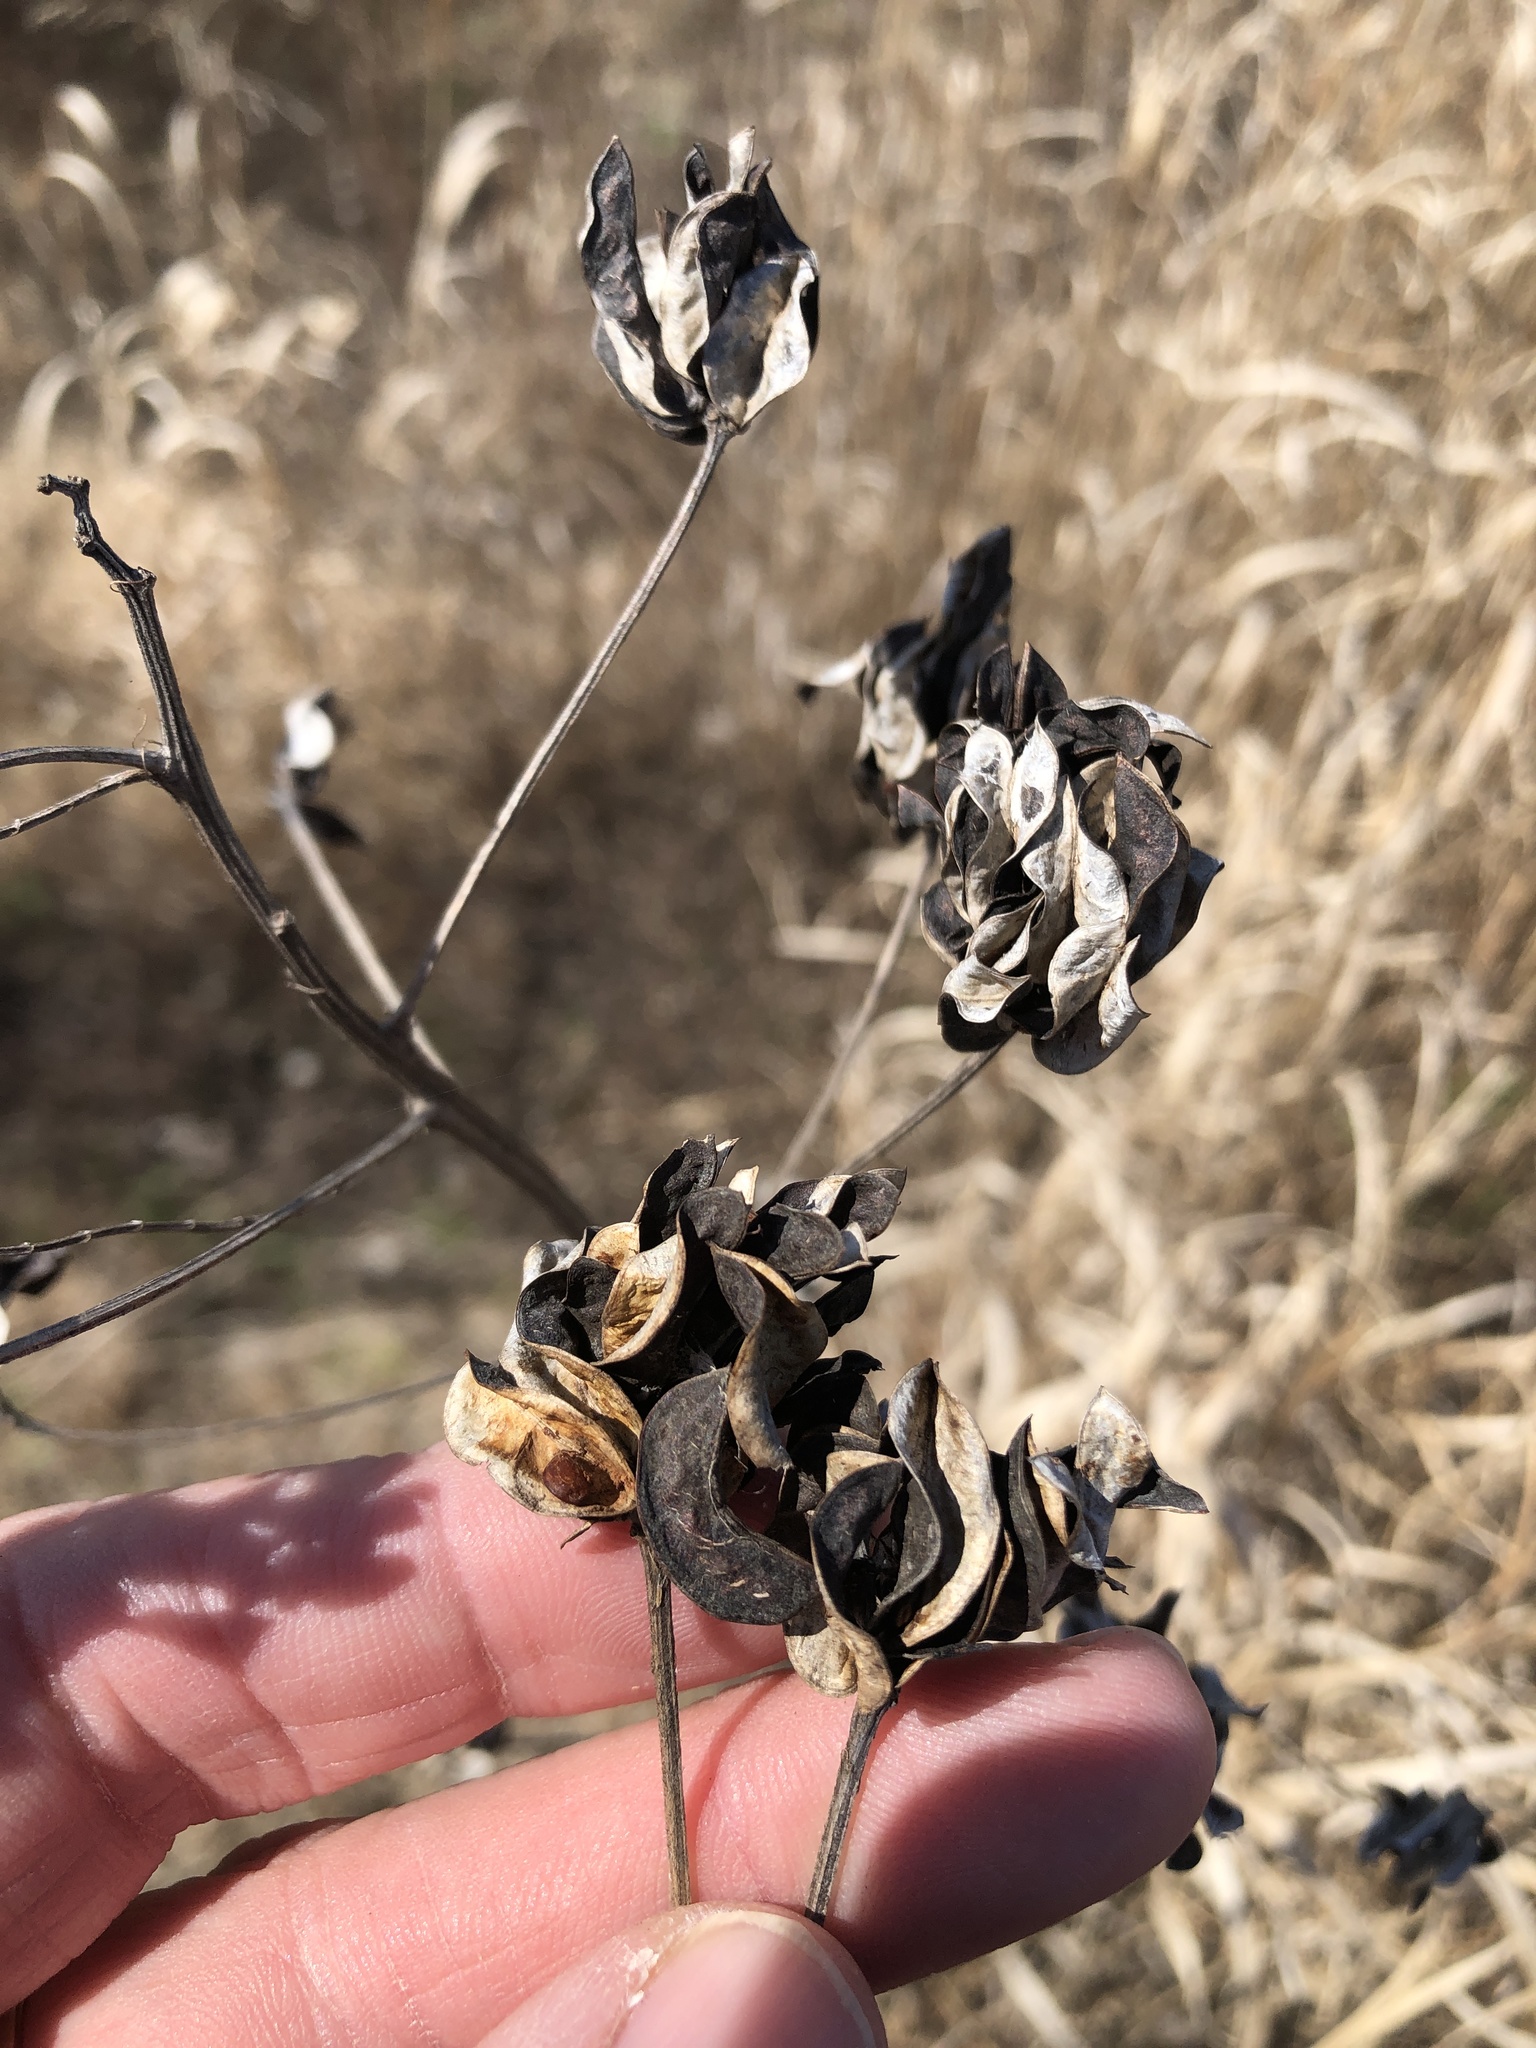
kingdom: Plantae
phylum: Tracheophyta
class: Magnoliopsida
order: Fabales
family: Fabaceae
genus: Desmanthus
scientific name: Desmanthus illinoensis
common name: Illinois bundle-flower
